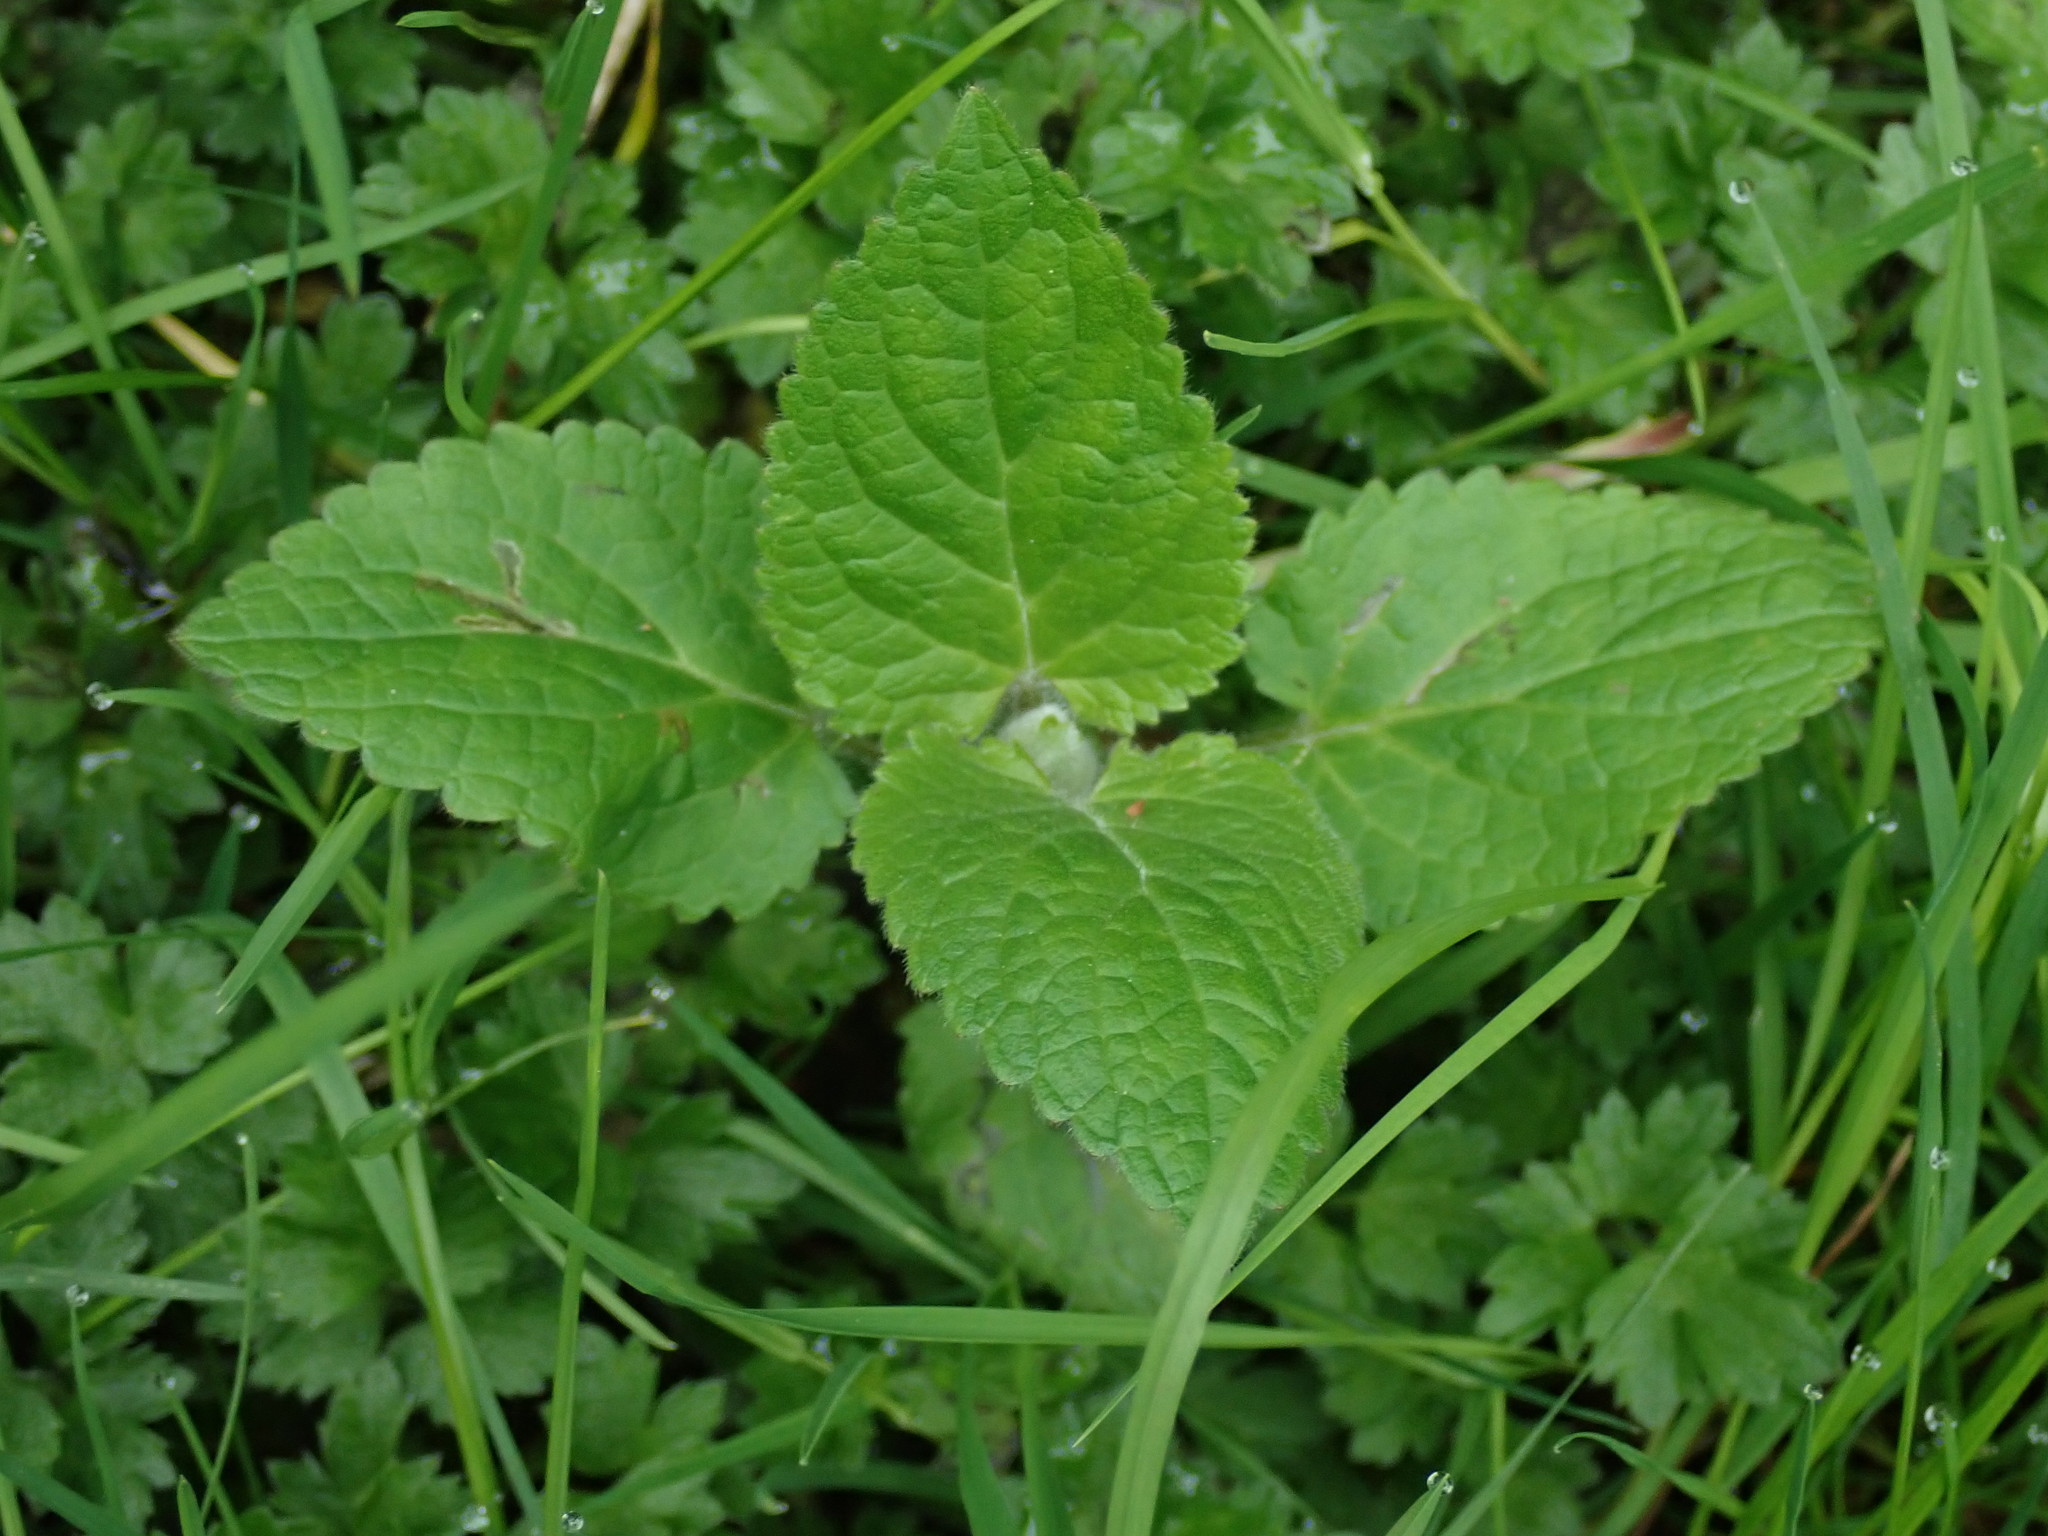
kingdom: Plantae
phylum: Tracheophyta
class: Magnoliopsida
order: Lamiales
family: Lamiaceae
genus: Stachys
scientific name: Stachys chamissonis
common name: Coastal hedge-nettle
